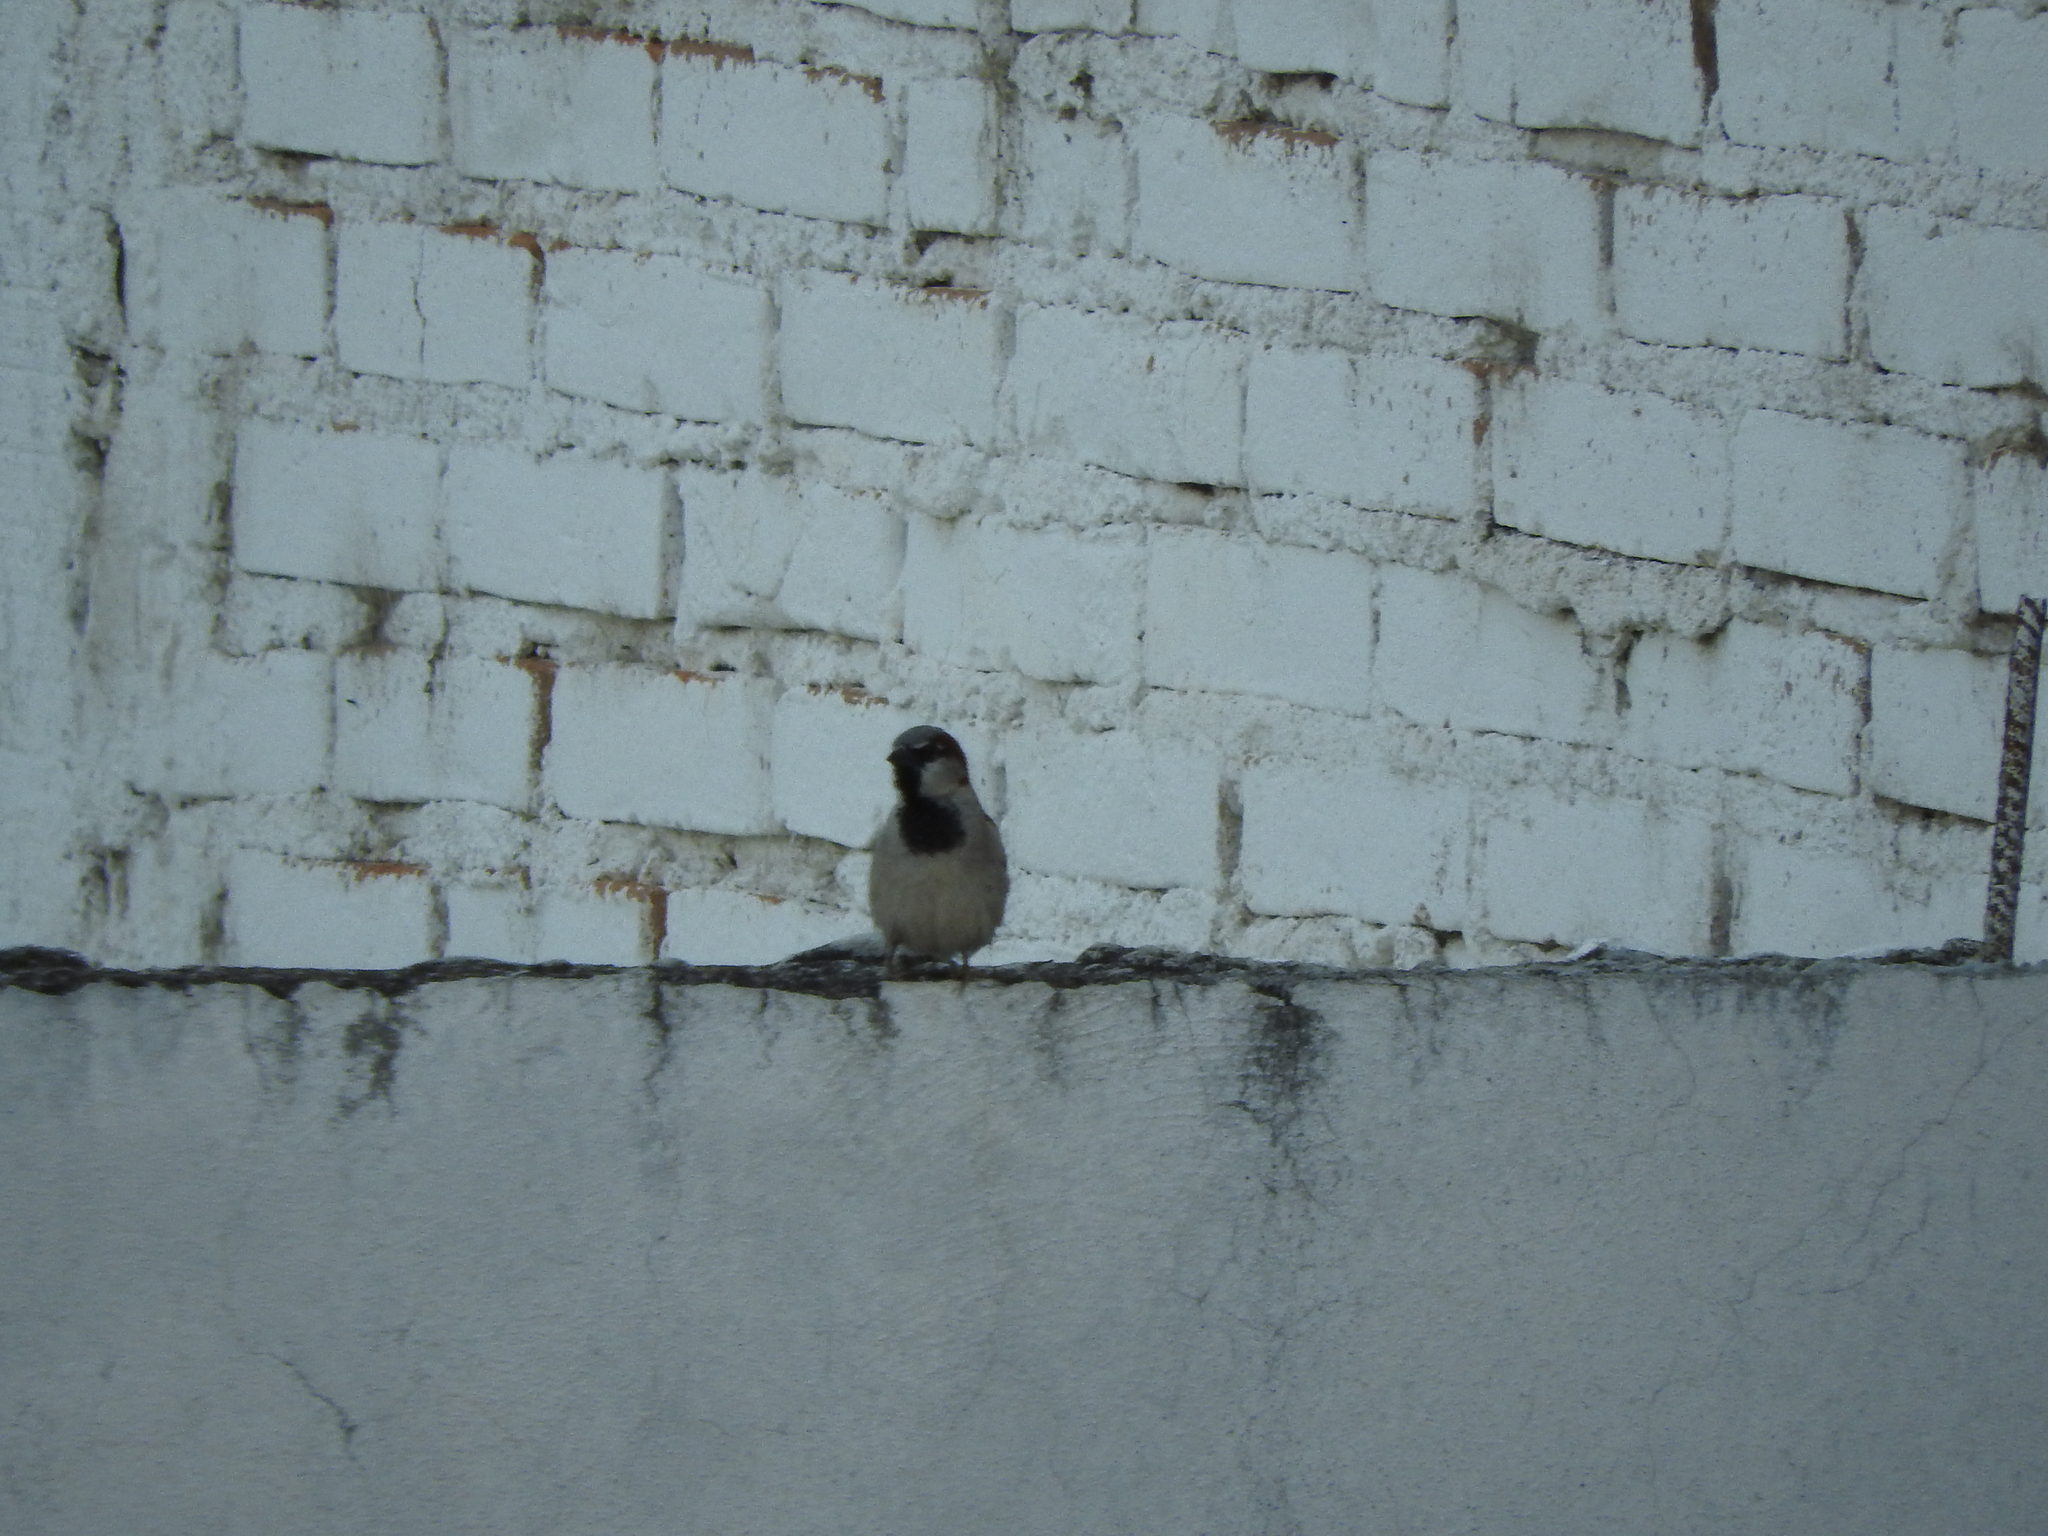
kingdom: Animalia
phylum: Chordata
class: Aves
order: Passeriformes
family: Passeridae
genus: Passer
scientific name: Passer domesticus
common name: House sparrow
